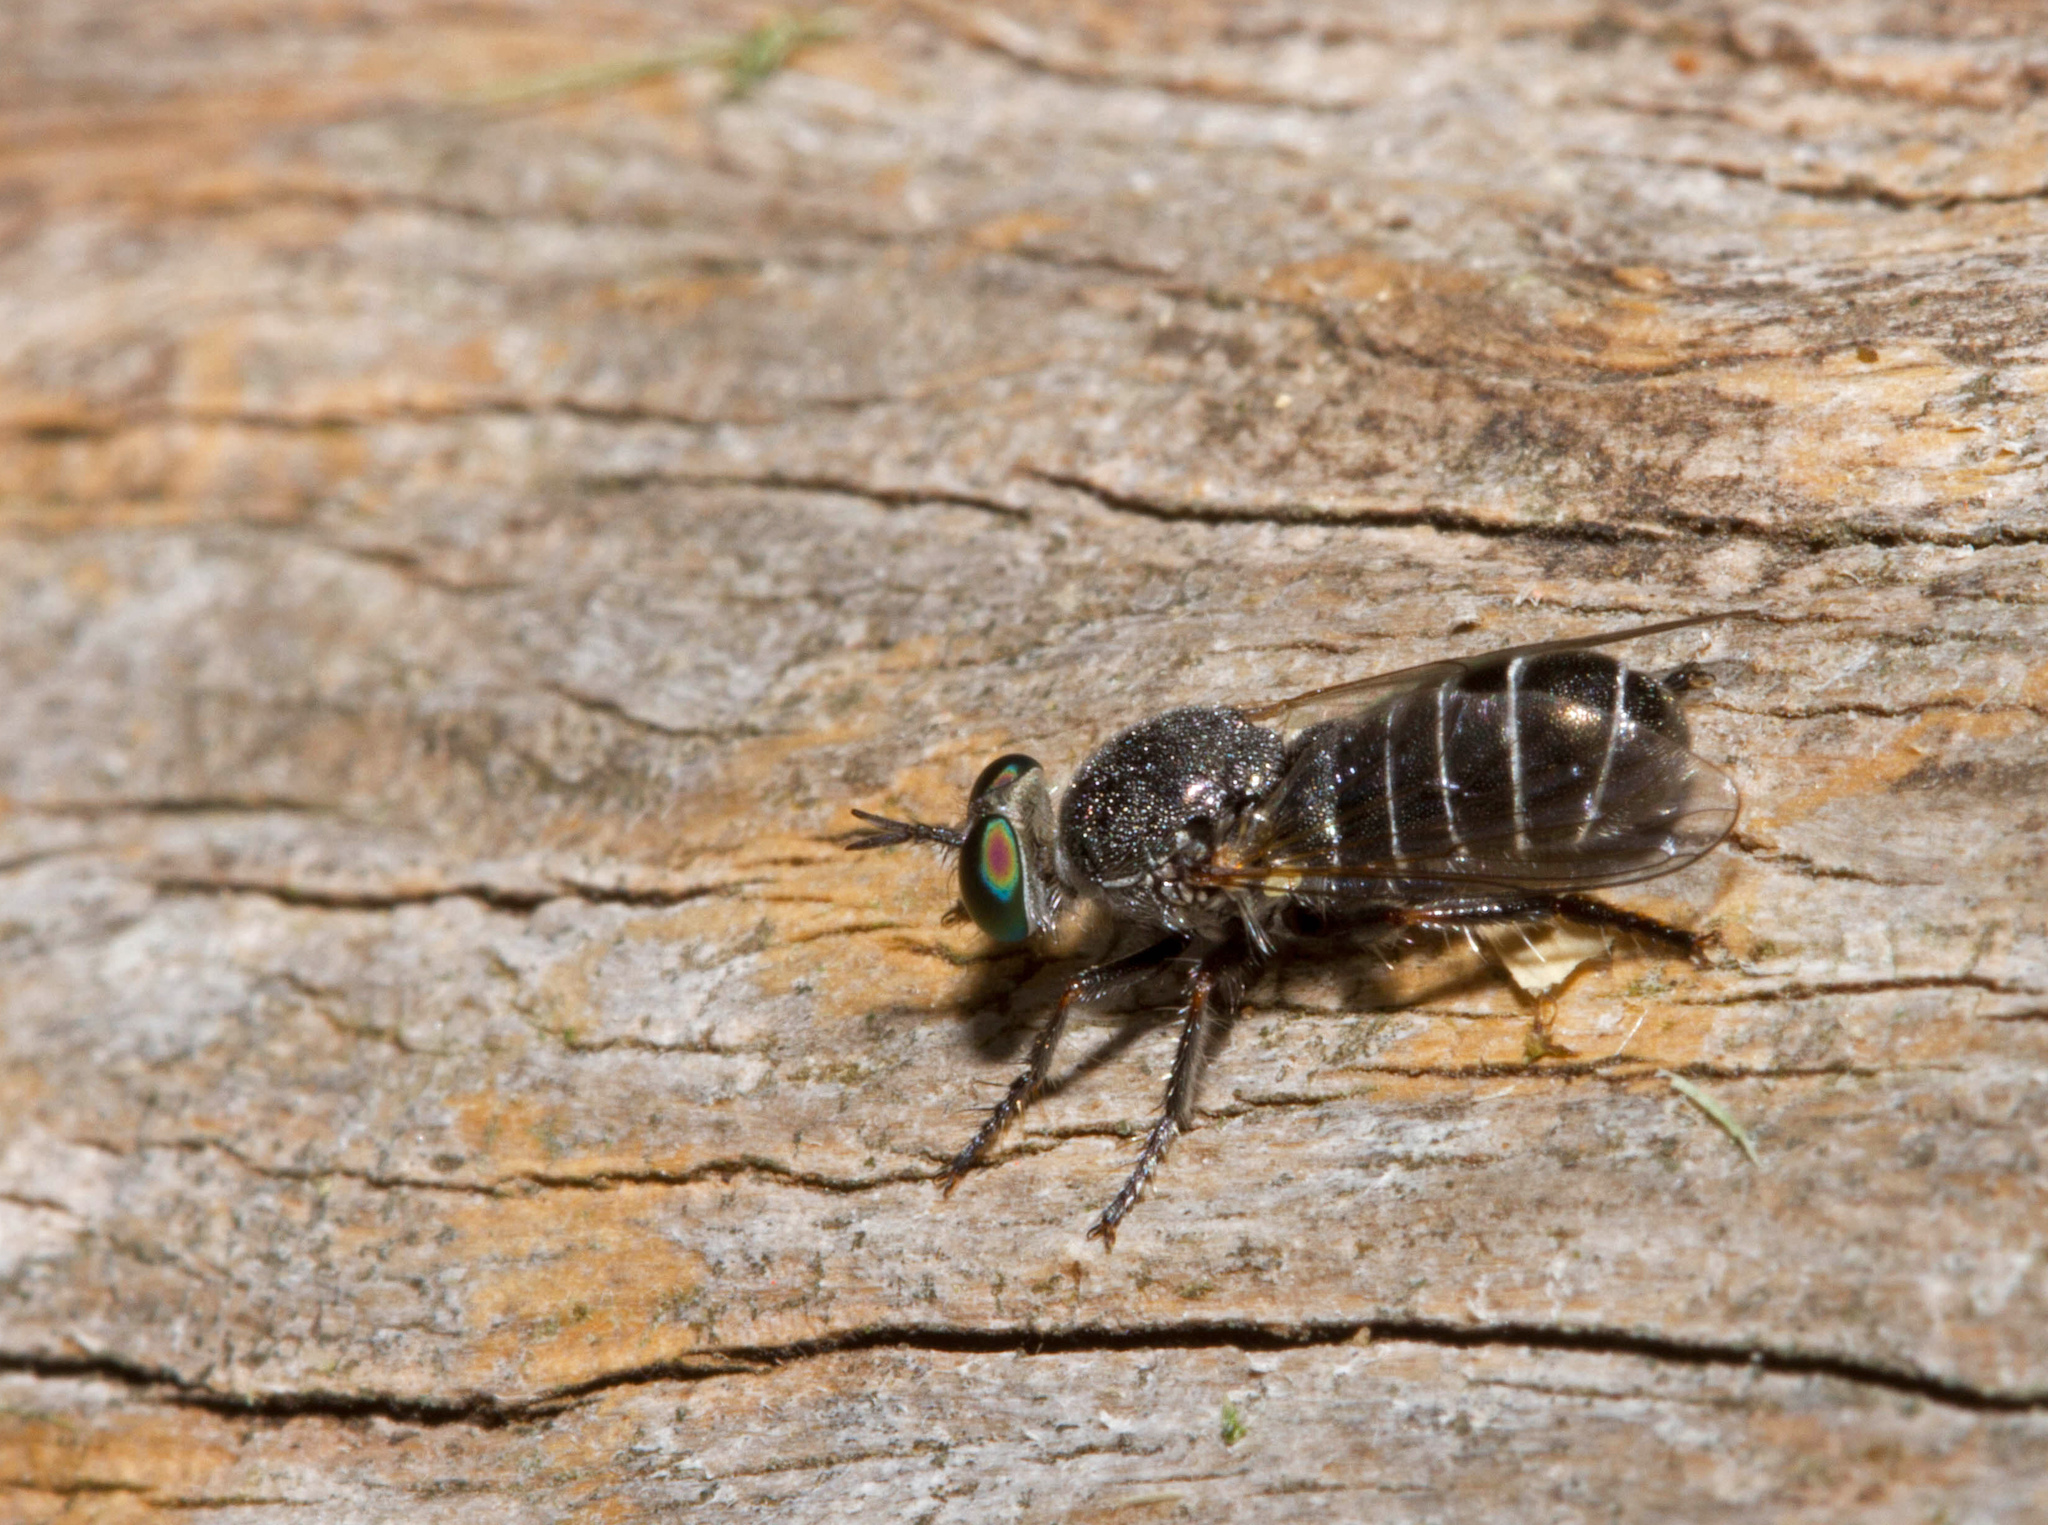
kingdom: Animalia
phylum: Arthropoda
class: Insecta
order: Diptera
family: Asilidae
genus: Atomosia
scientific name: Atomosia melanopogon
